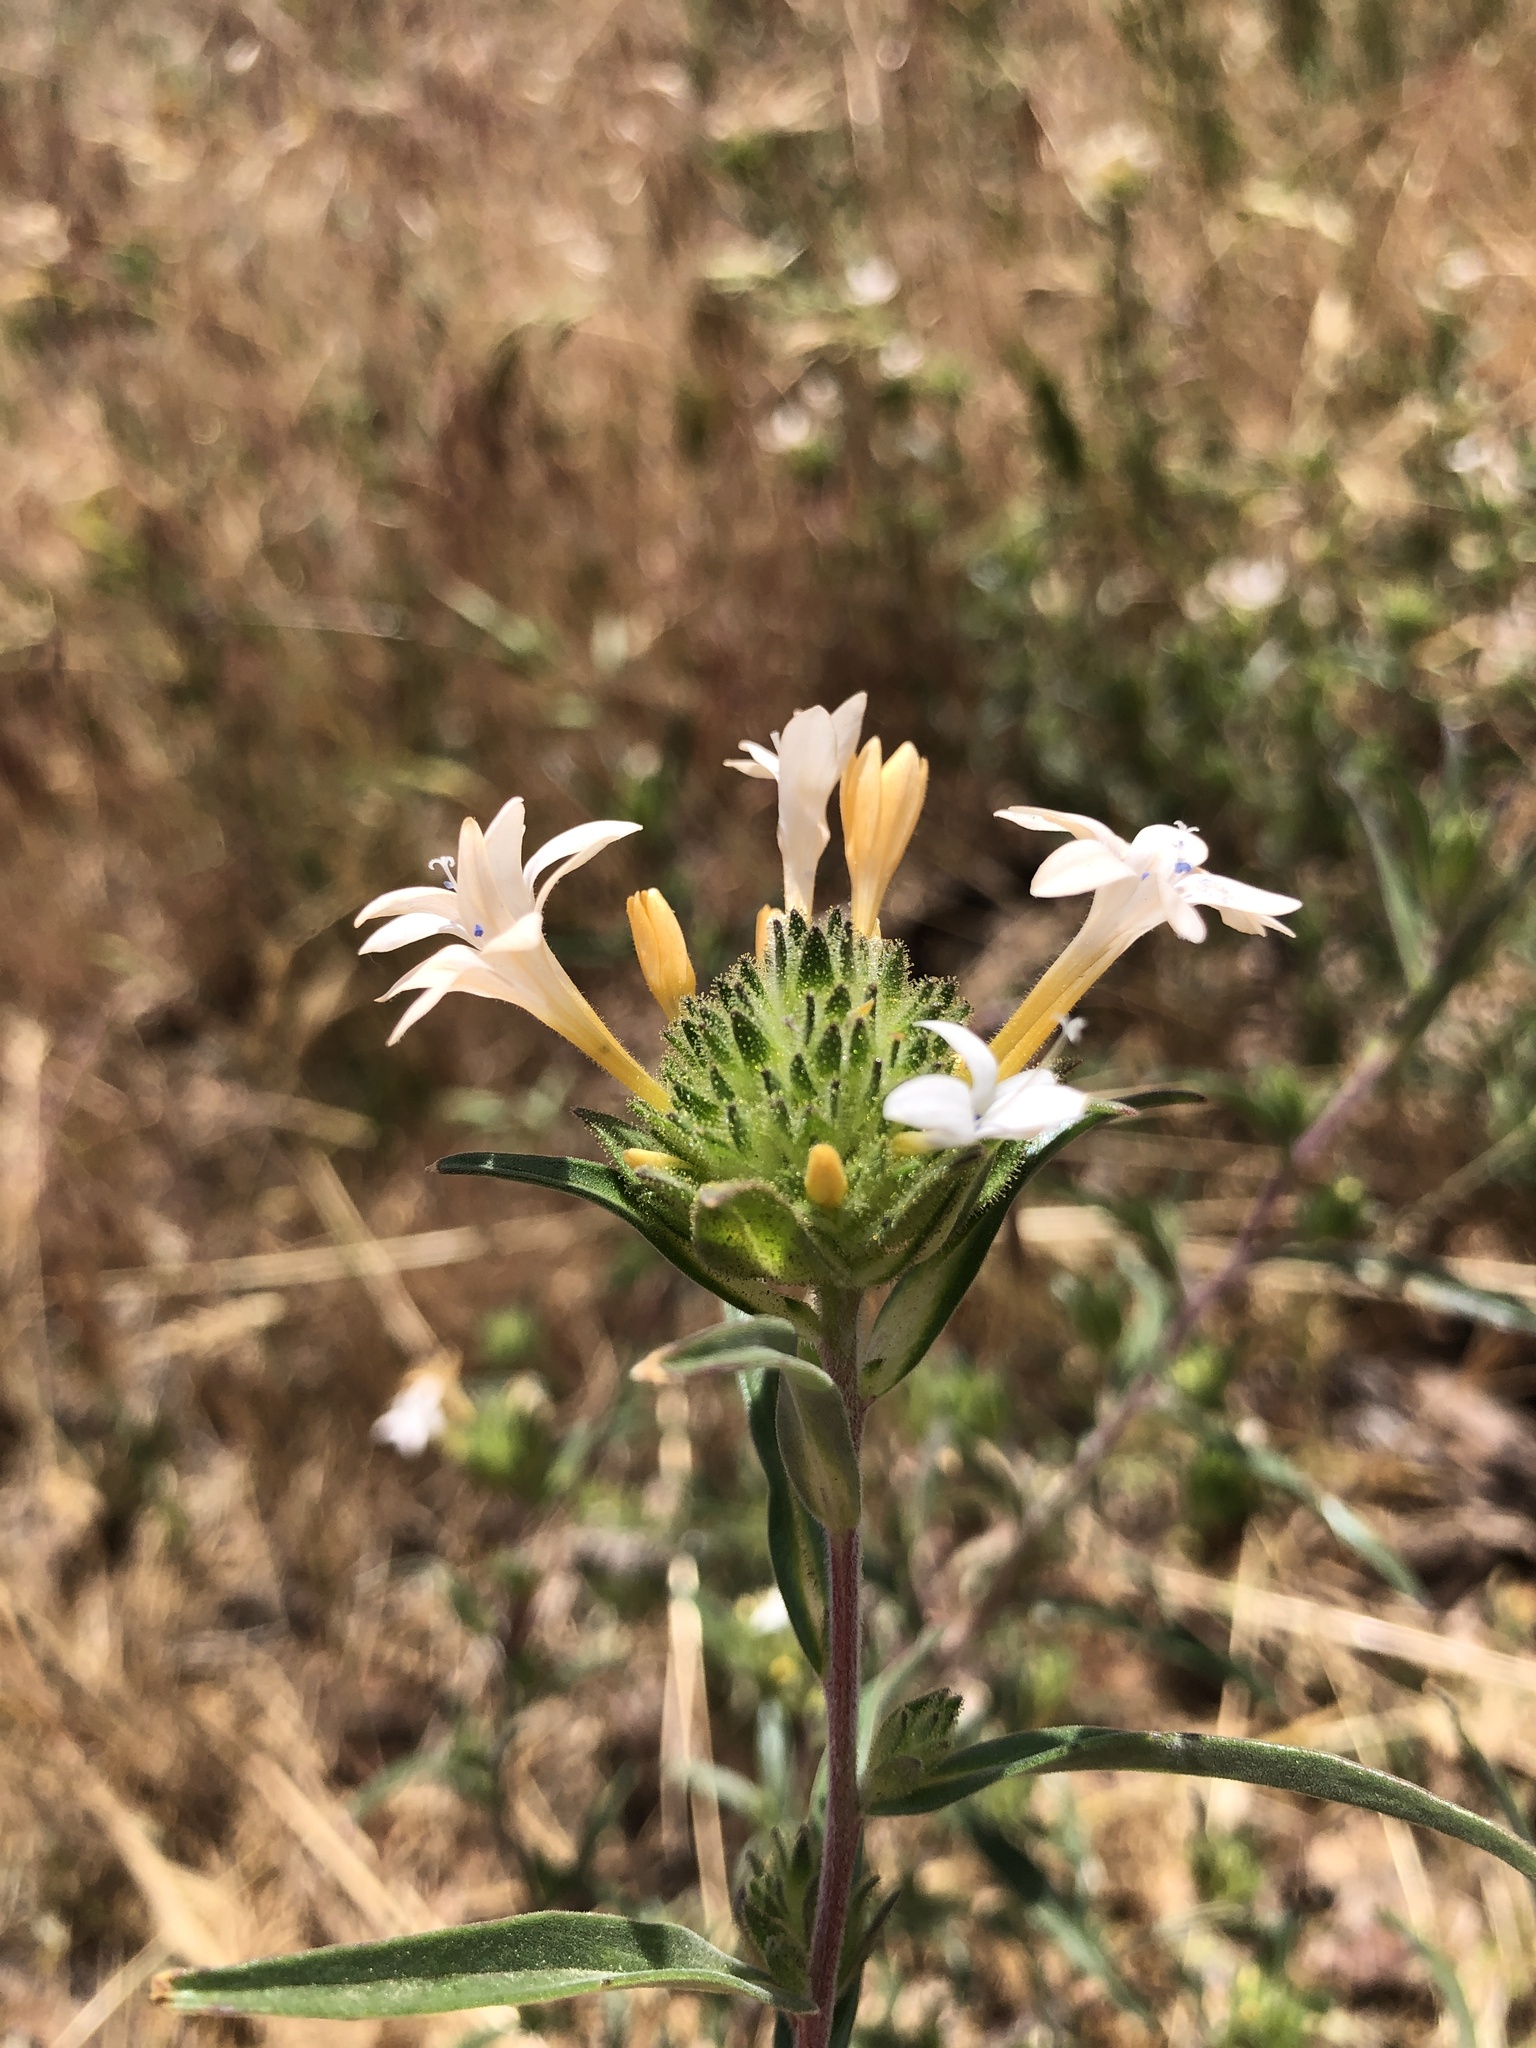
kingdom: Plantae
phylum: Tracheophyta
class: Magnoliopsida
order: Ericales
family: Polemoniaceae
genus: Collomia
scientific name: Collomia grandiflora
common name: California strawflower
